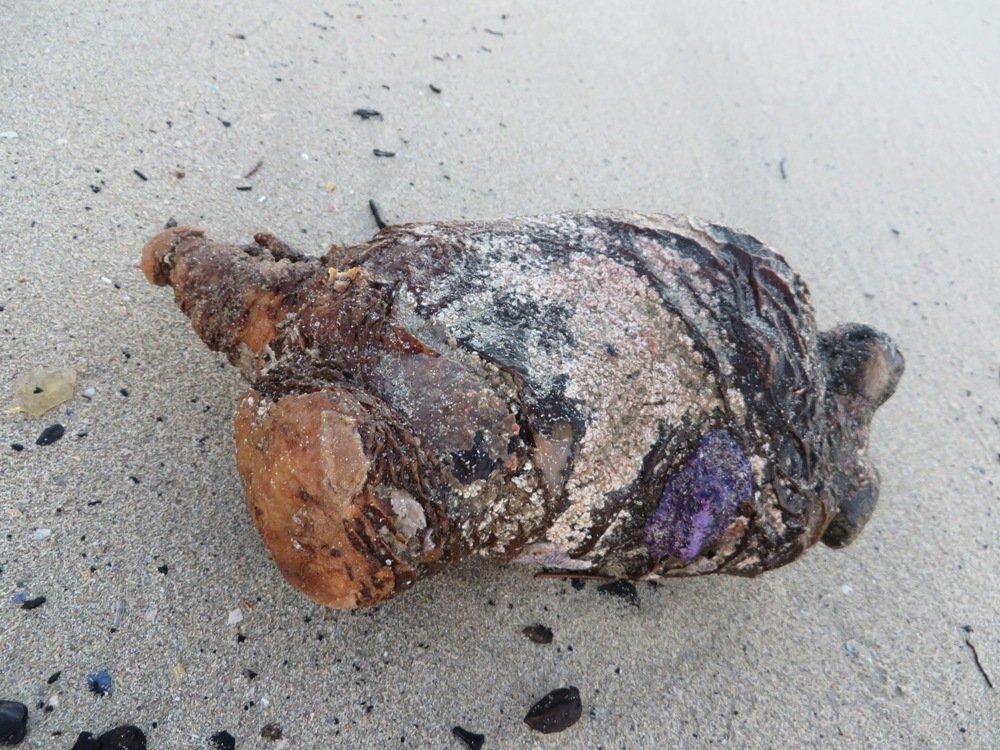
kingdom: Animalia
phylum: Chordata
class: Ascidiacea
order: Stolidobranchia
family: Pyuridae
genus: Pyura
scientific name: Pyura stolonifera
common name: Red bait
